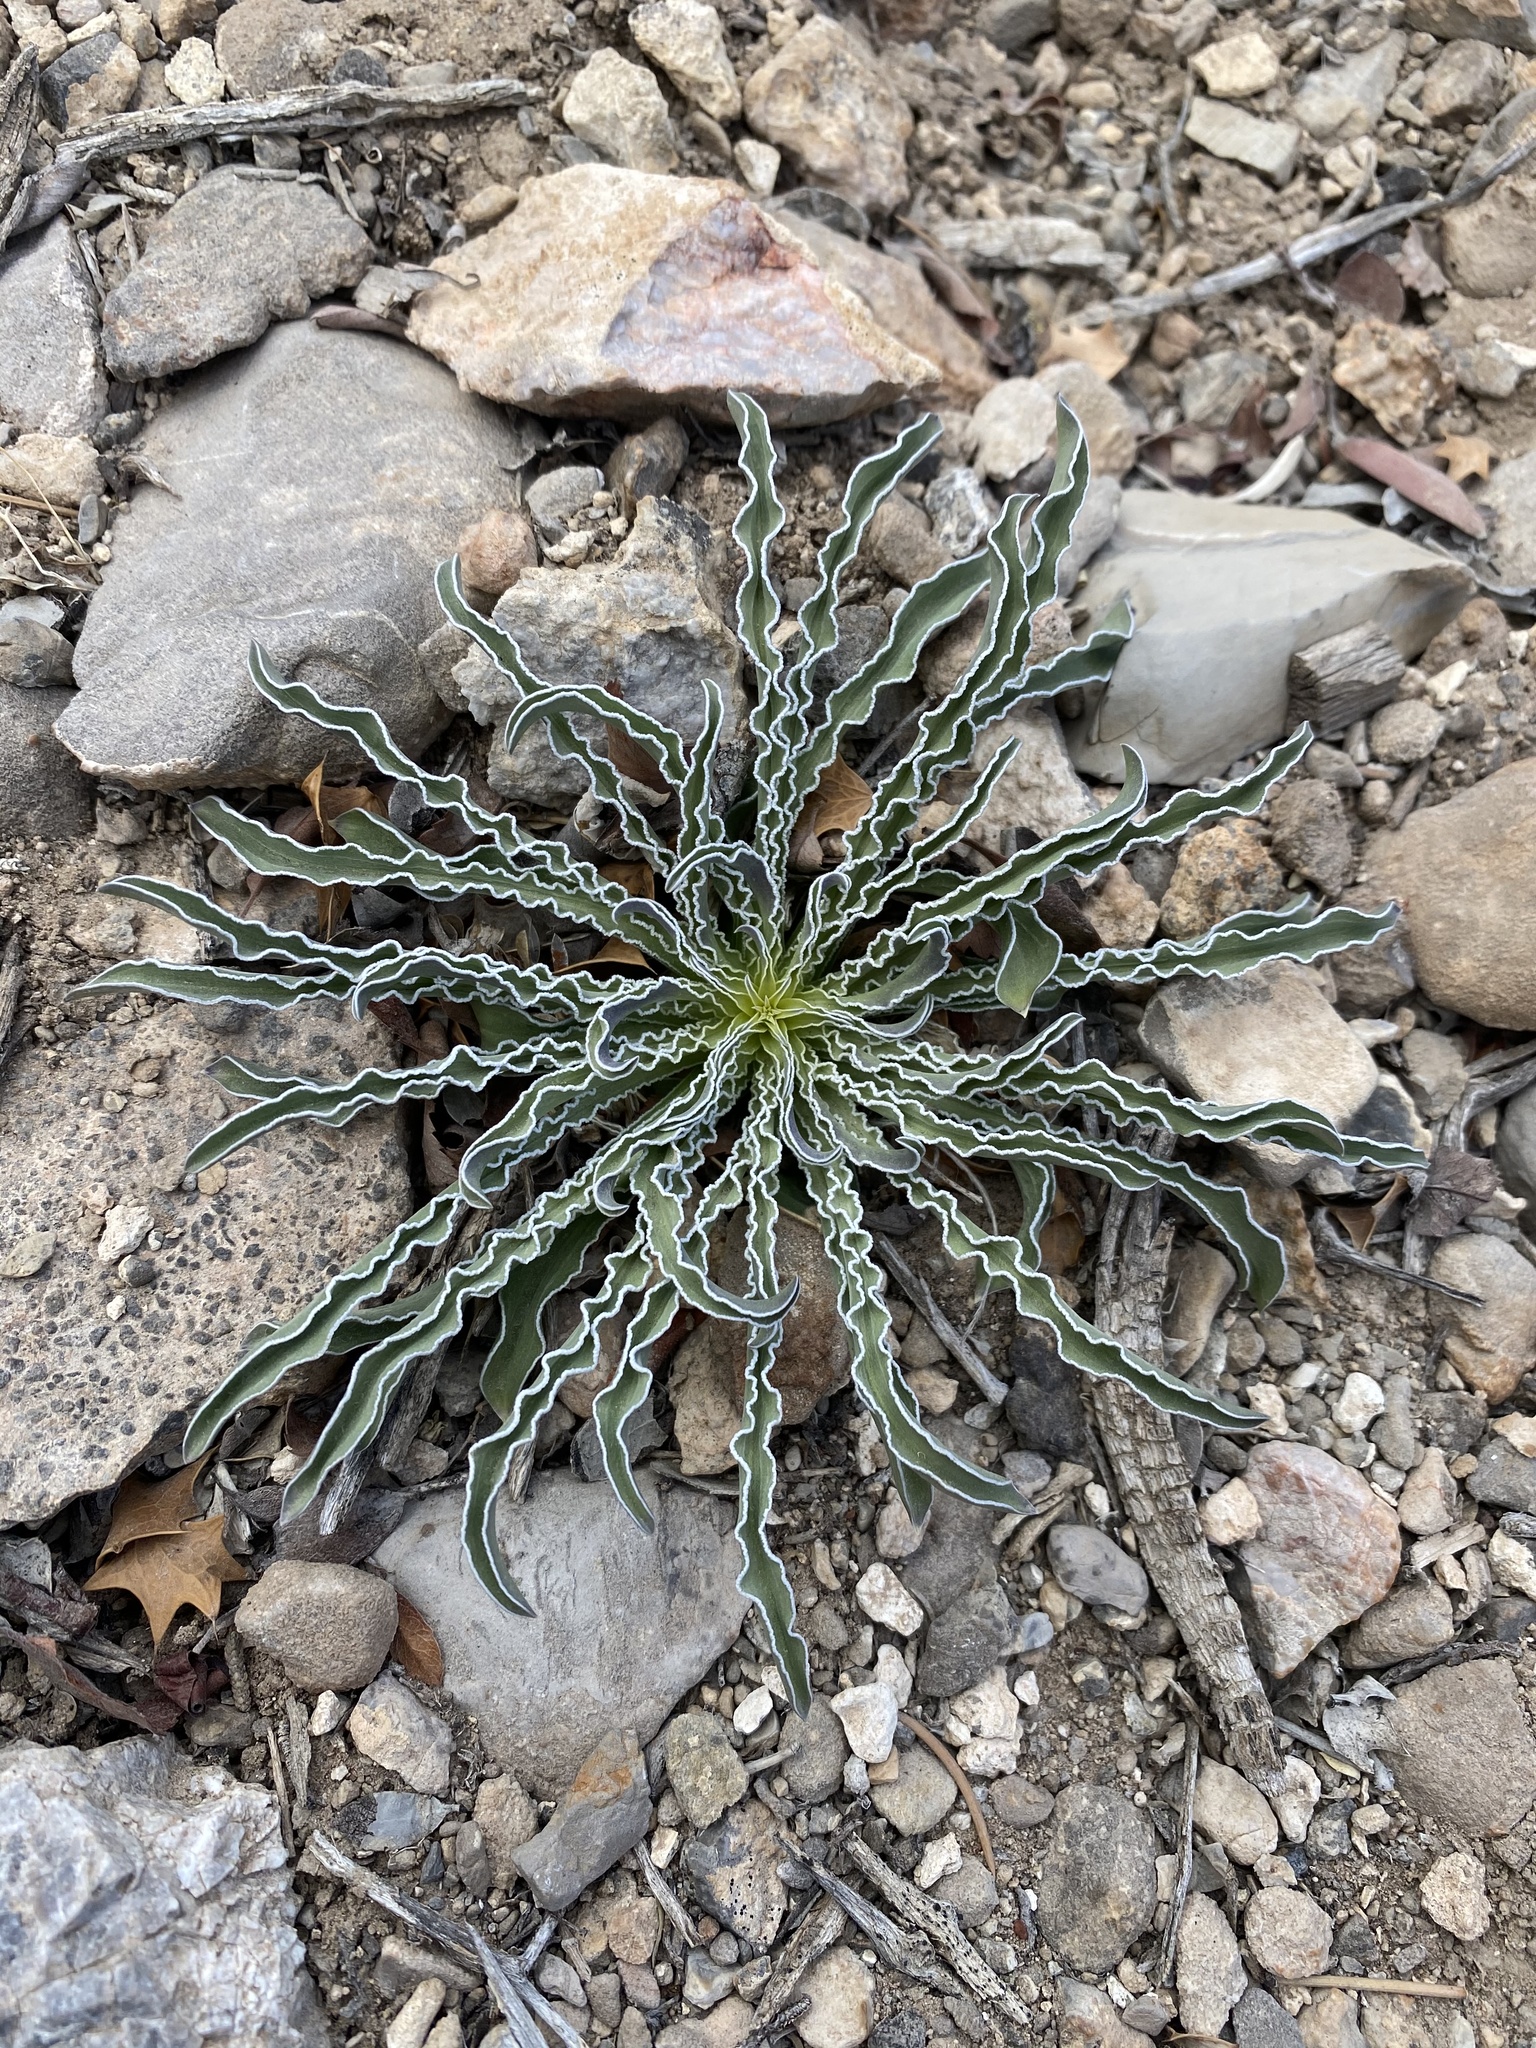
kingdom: Plantae
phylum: Tracheophyta
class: Magnoliopsida
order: Gentianales
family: Gentianaceae
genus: Frasera
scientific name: Frasera albomarginata
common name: Desert frasera
